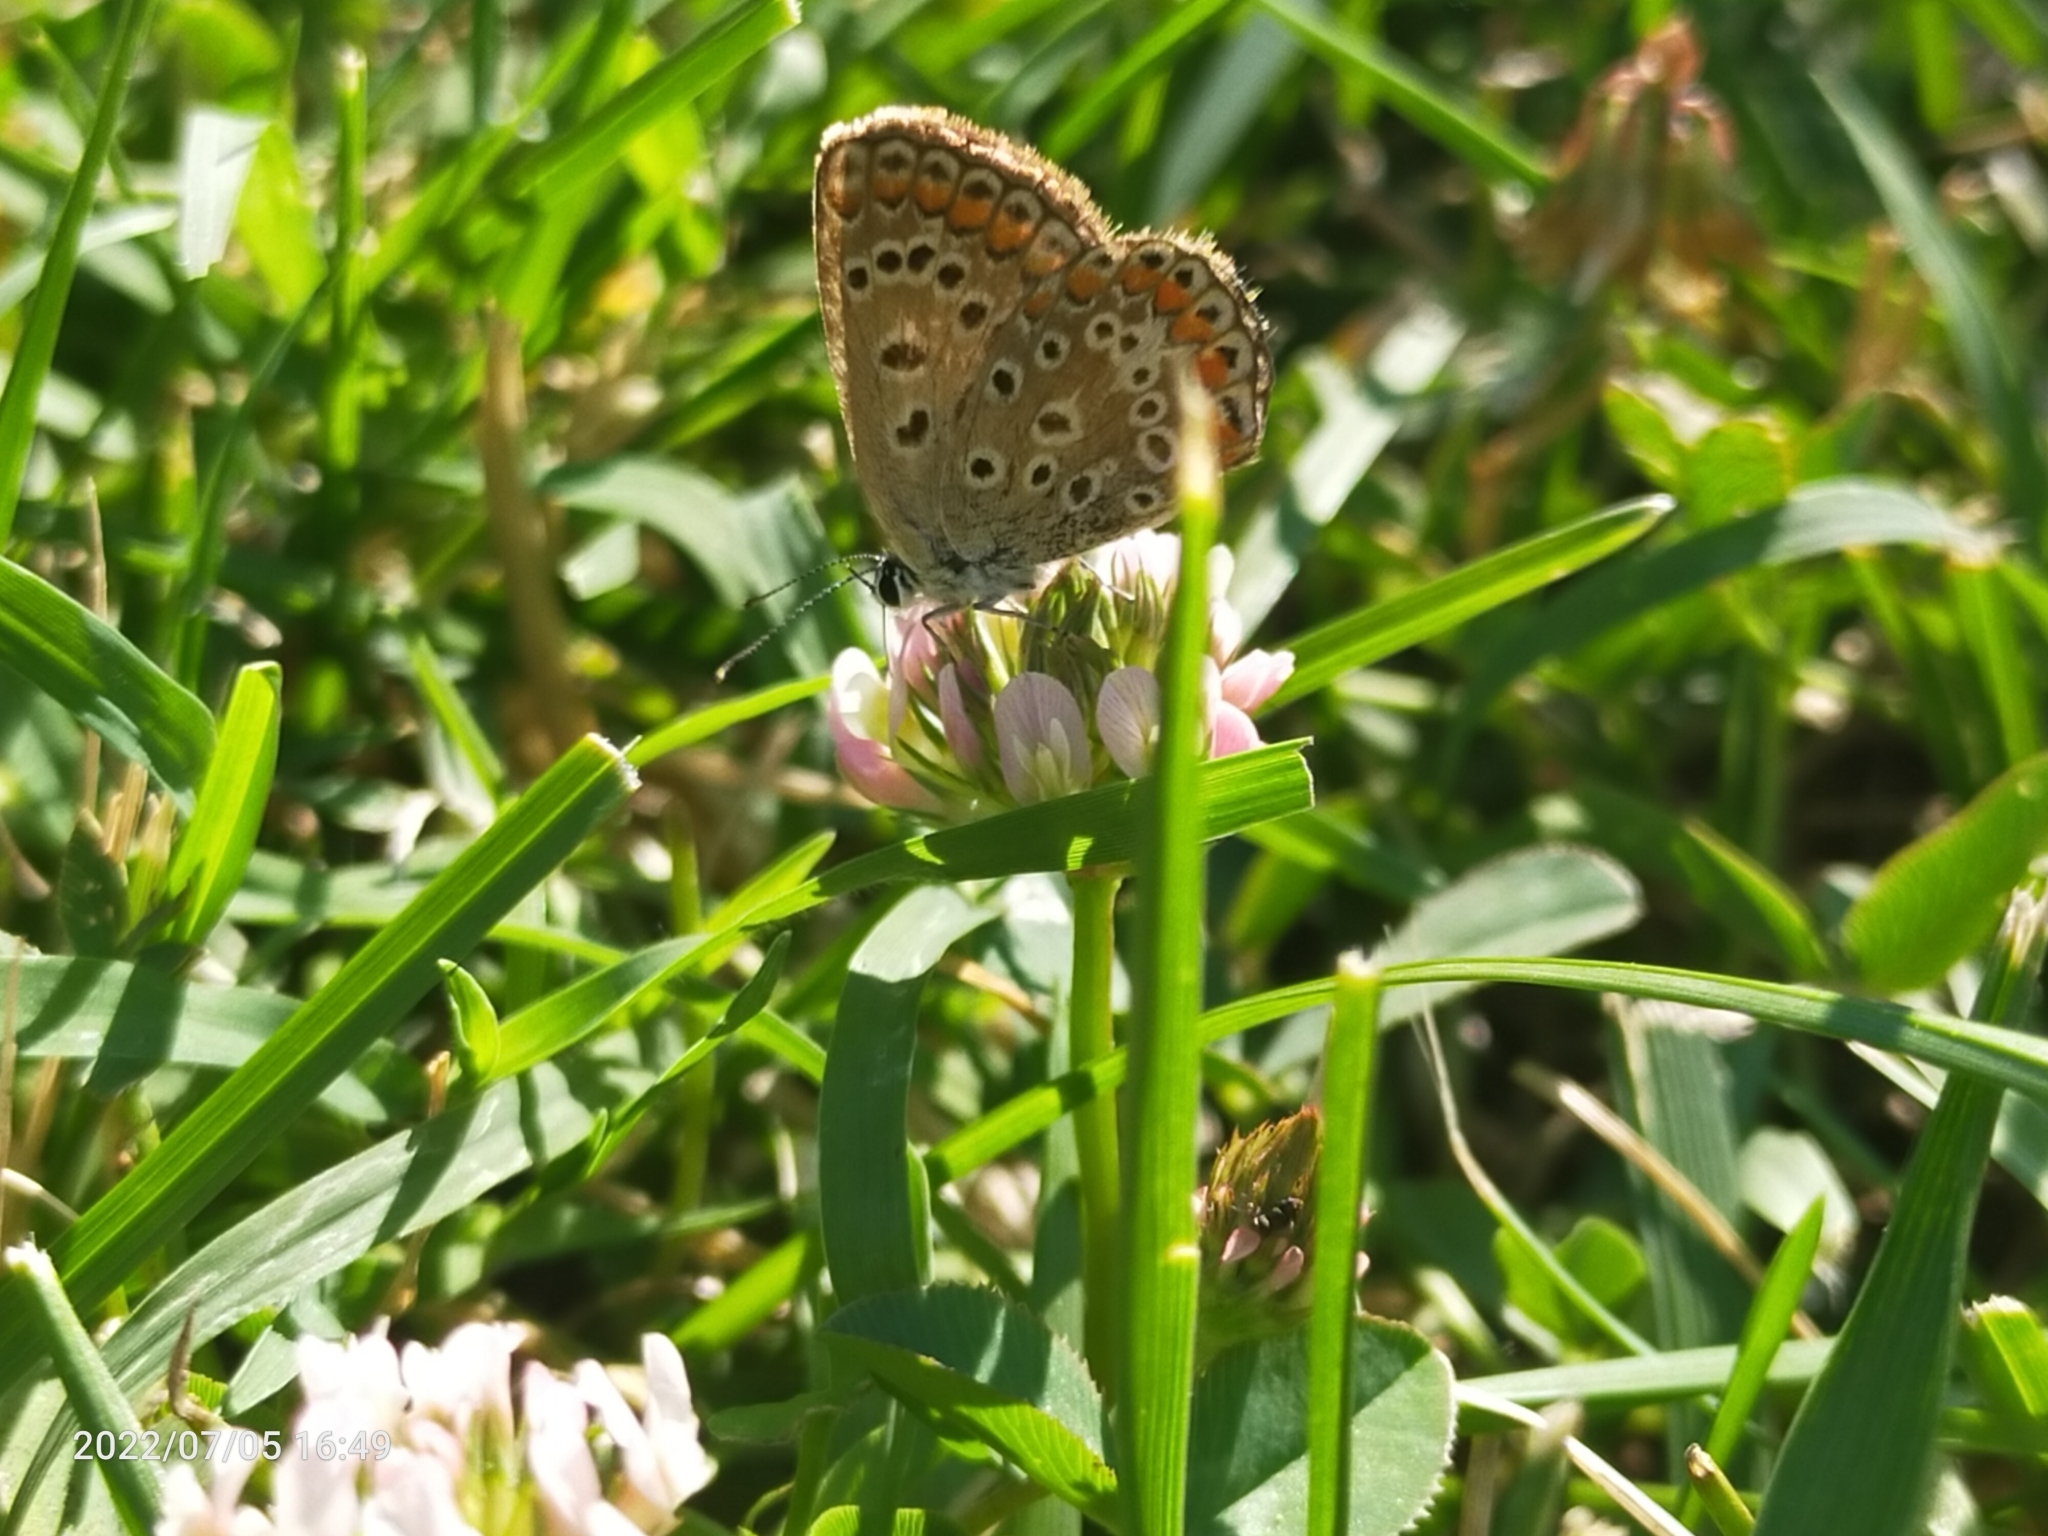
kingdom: Animalia
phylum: Arthropoda
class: Insecta
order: Lepidoptera
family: Lycaenidae
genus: Polyommatus
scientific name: Polyommatus icarus
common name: Common blue
